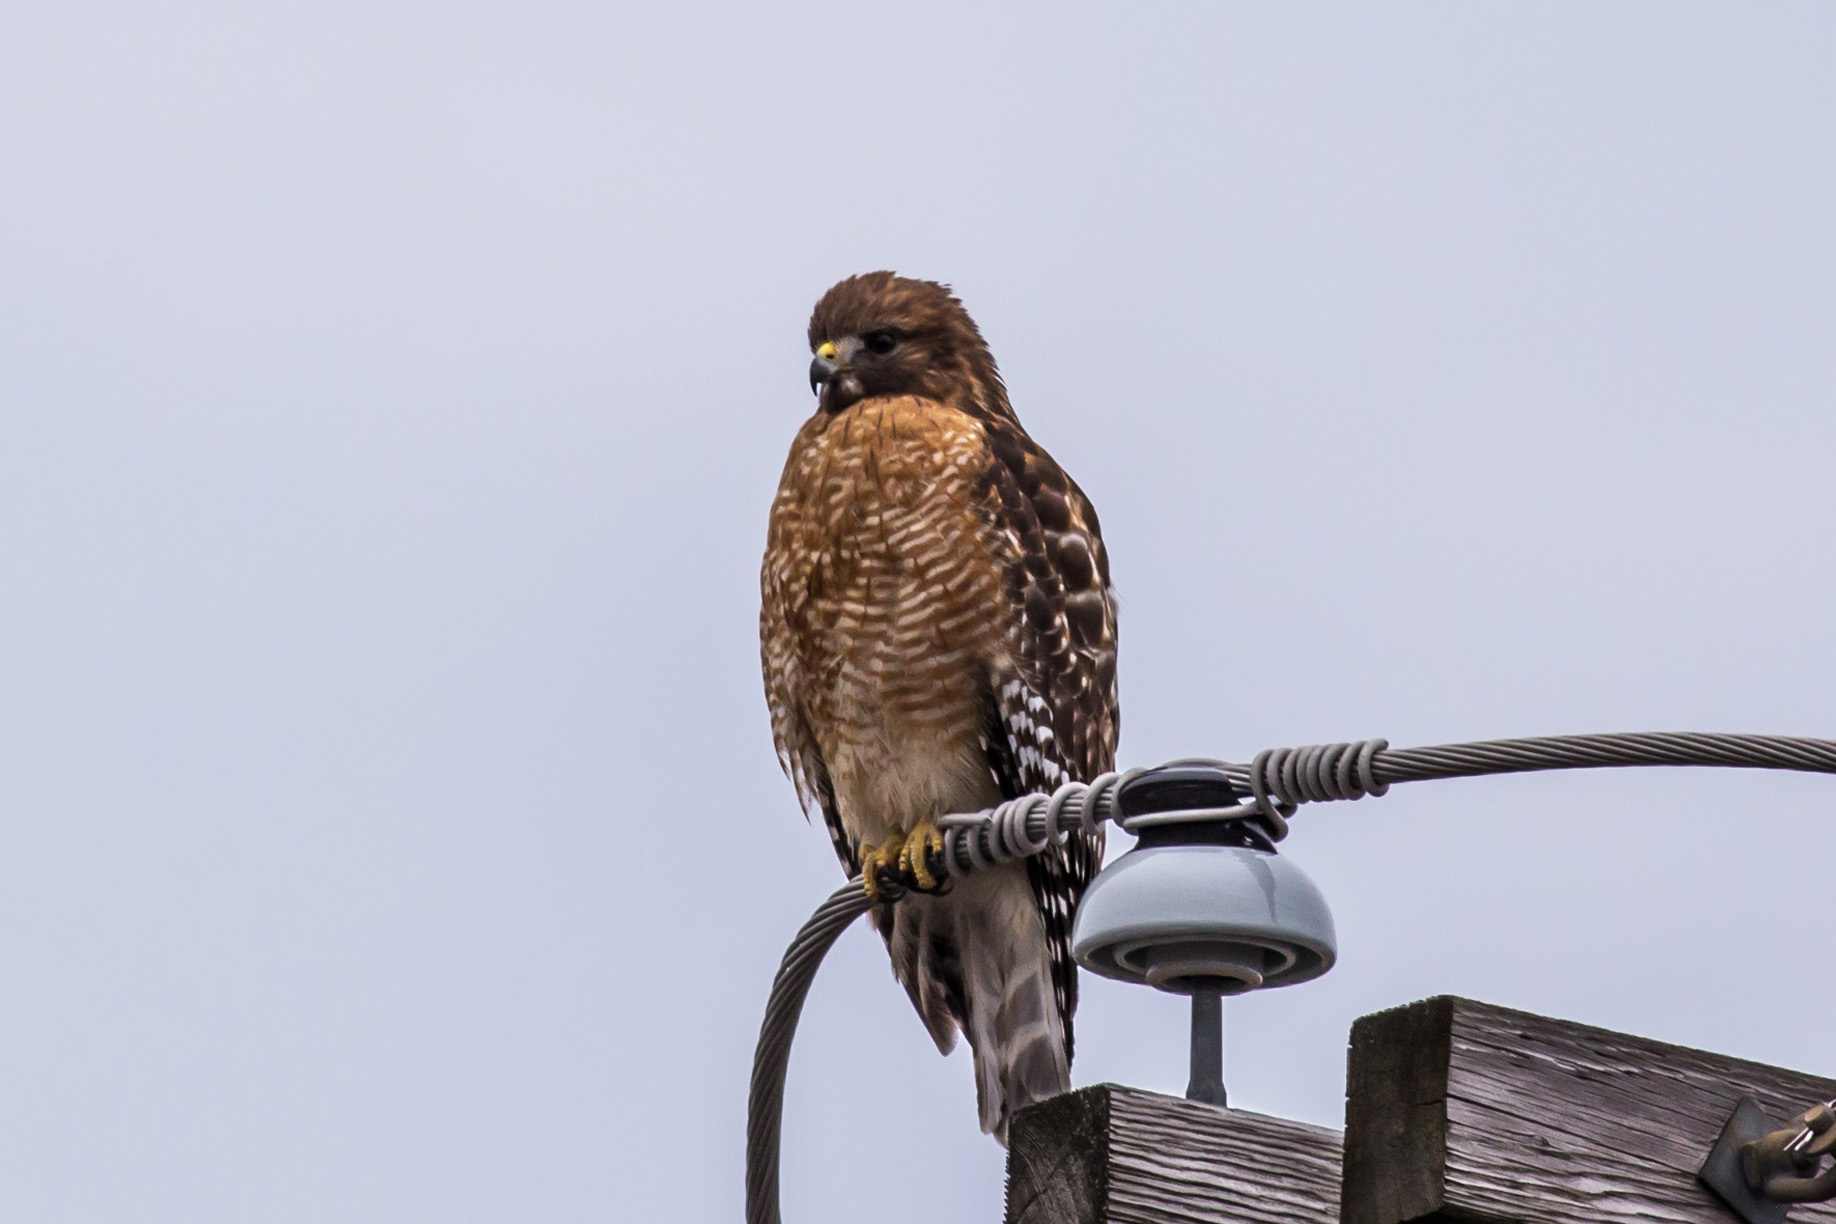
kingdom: Animalia
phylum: Chordata
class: Aves
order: Accipitriformes
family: Accipitridae
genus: Buteo
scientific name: Buteo lineatus
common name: Red-shouldered hawk
